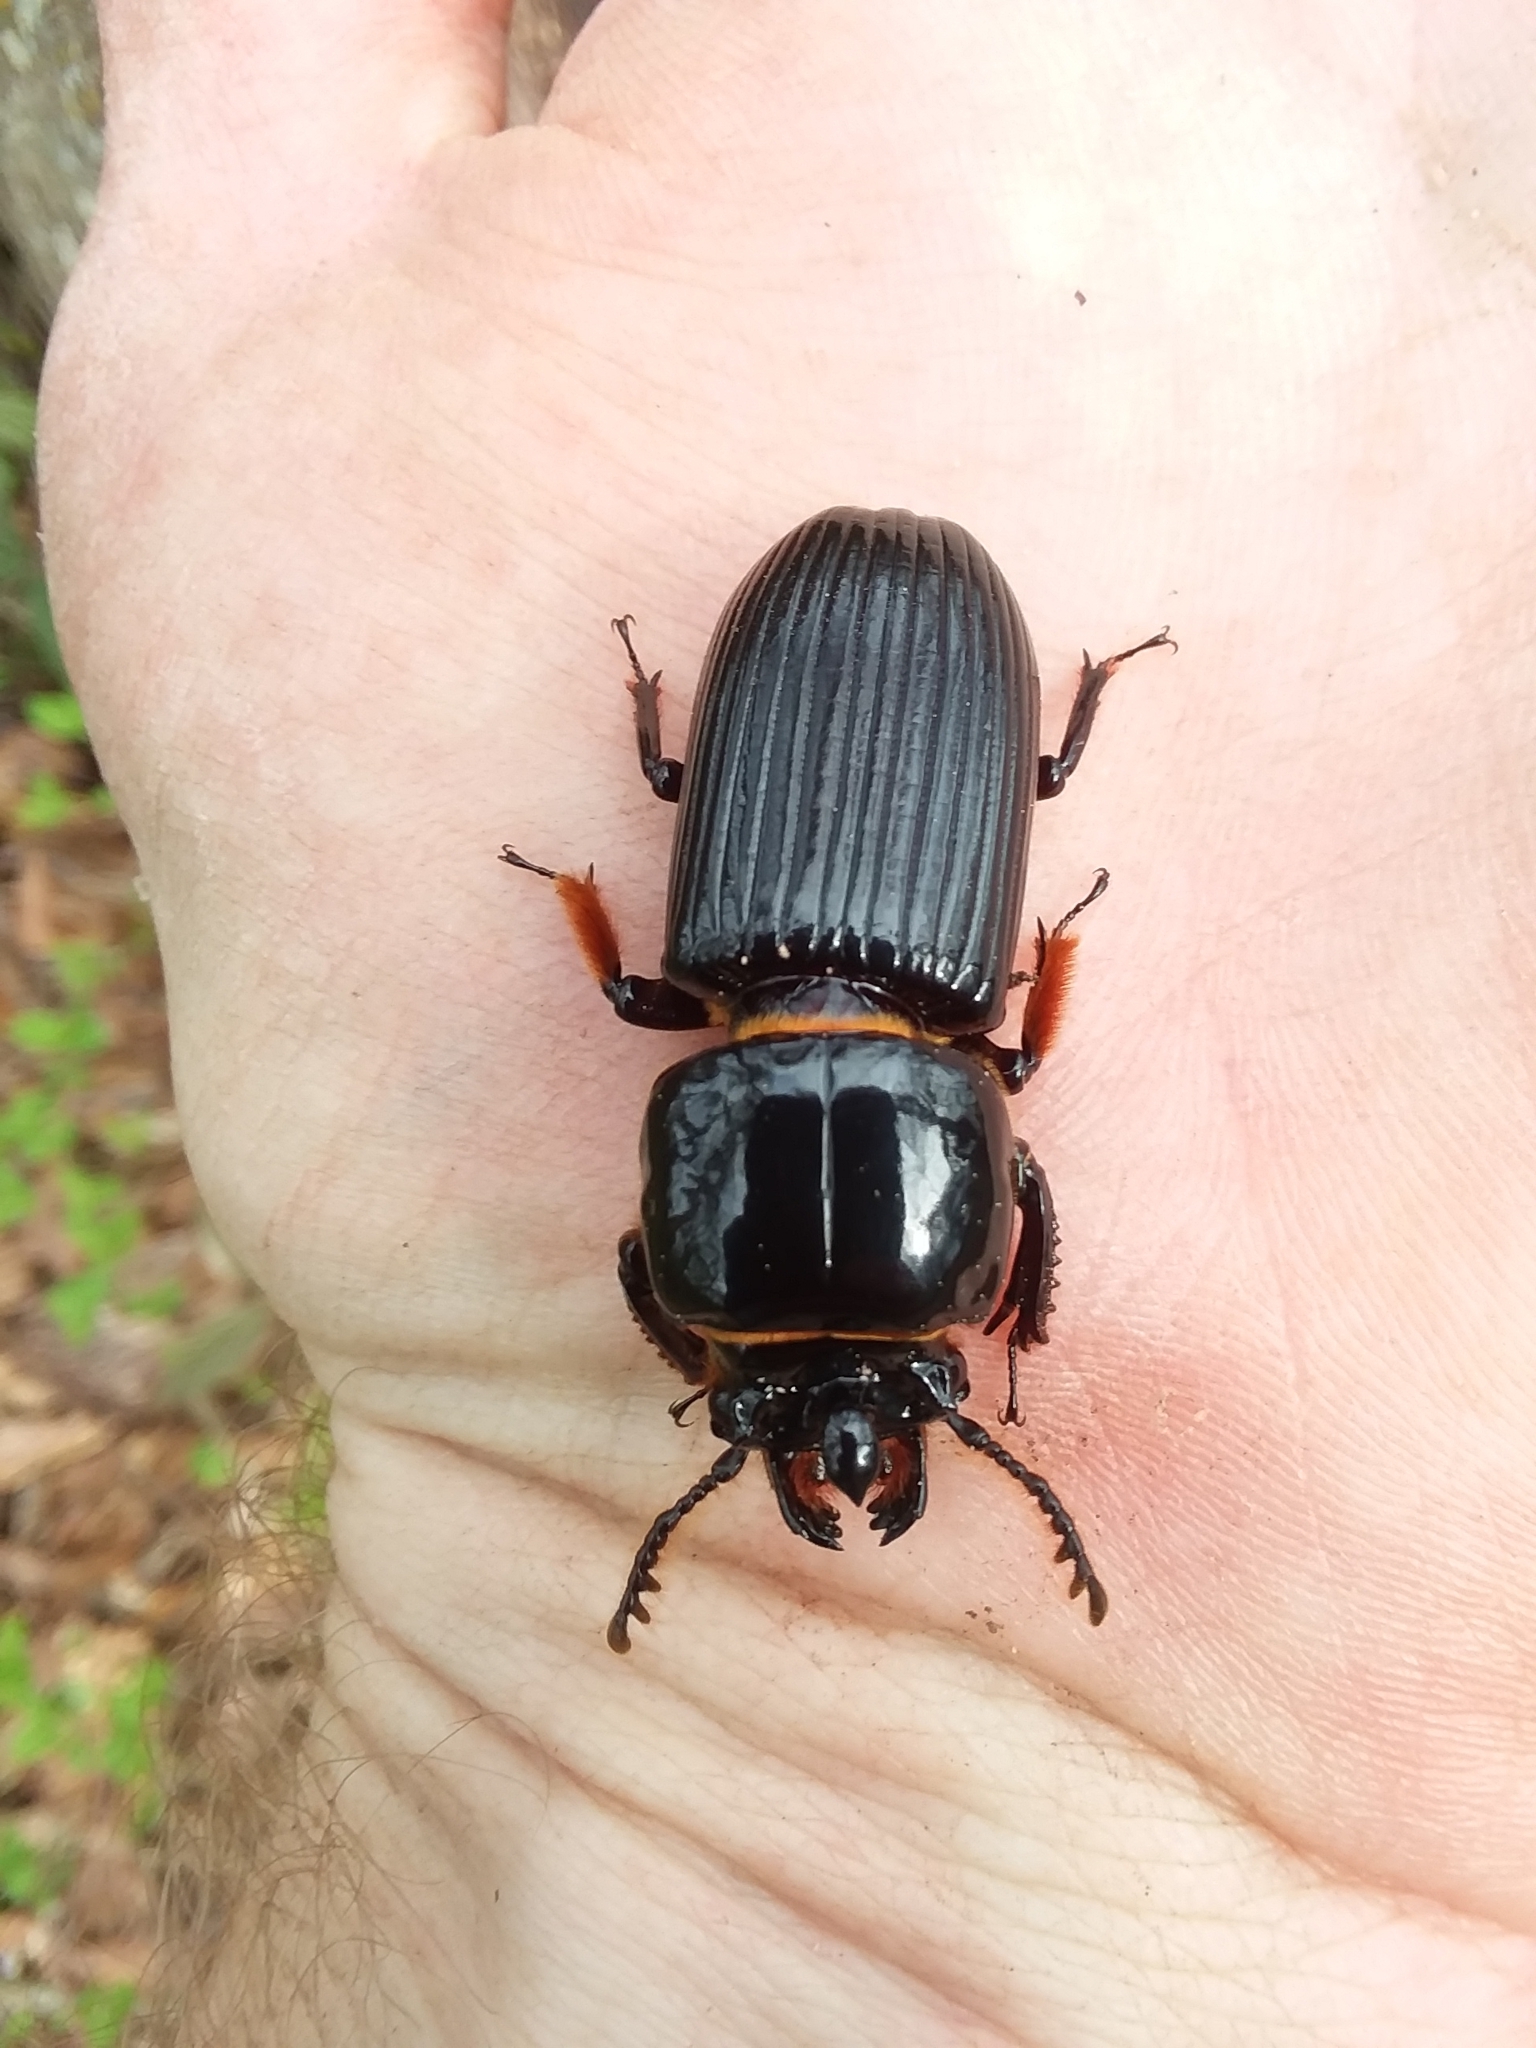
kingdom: Animalia
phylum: Arthropoda
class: Insecta
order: Coleoptera
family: Passalidae
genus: Odontotaenius
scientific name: Odontotaenius disjunctus
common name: Patent leather beetle
